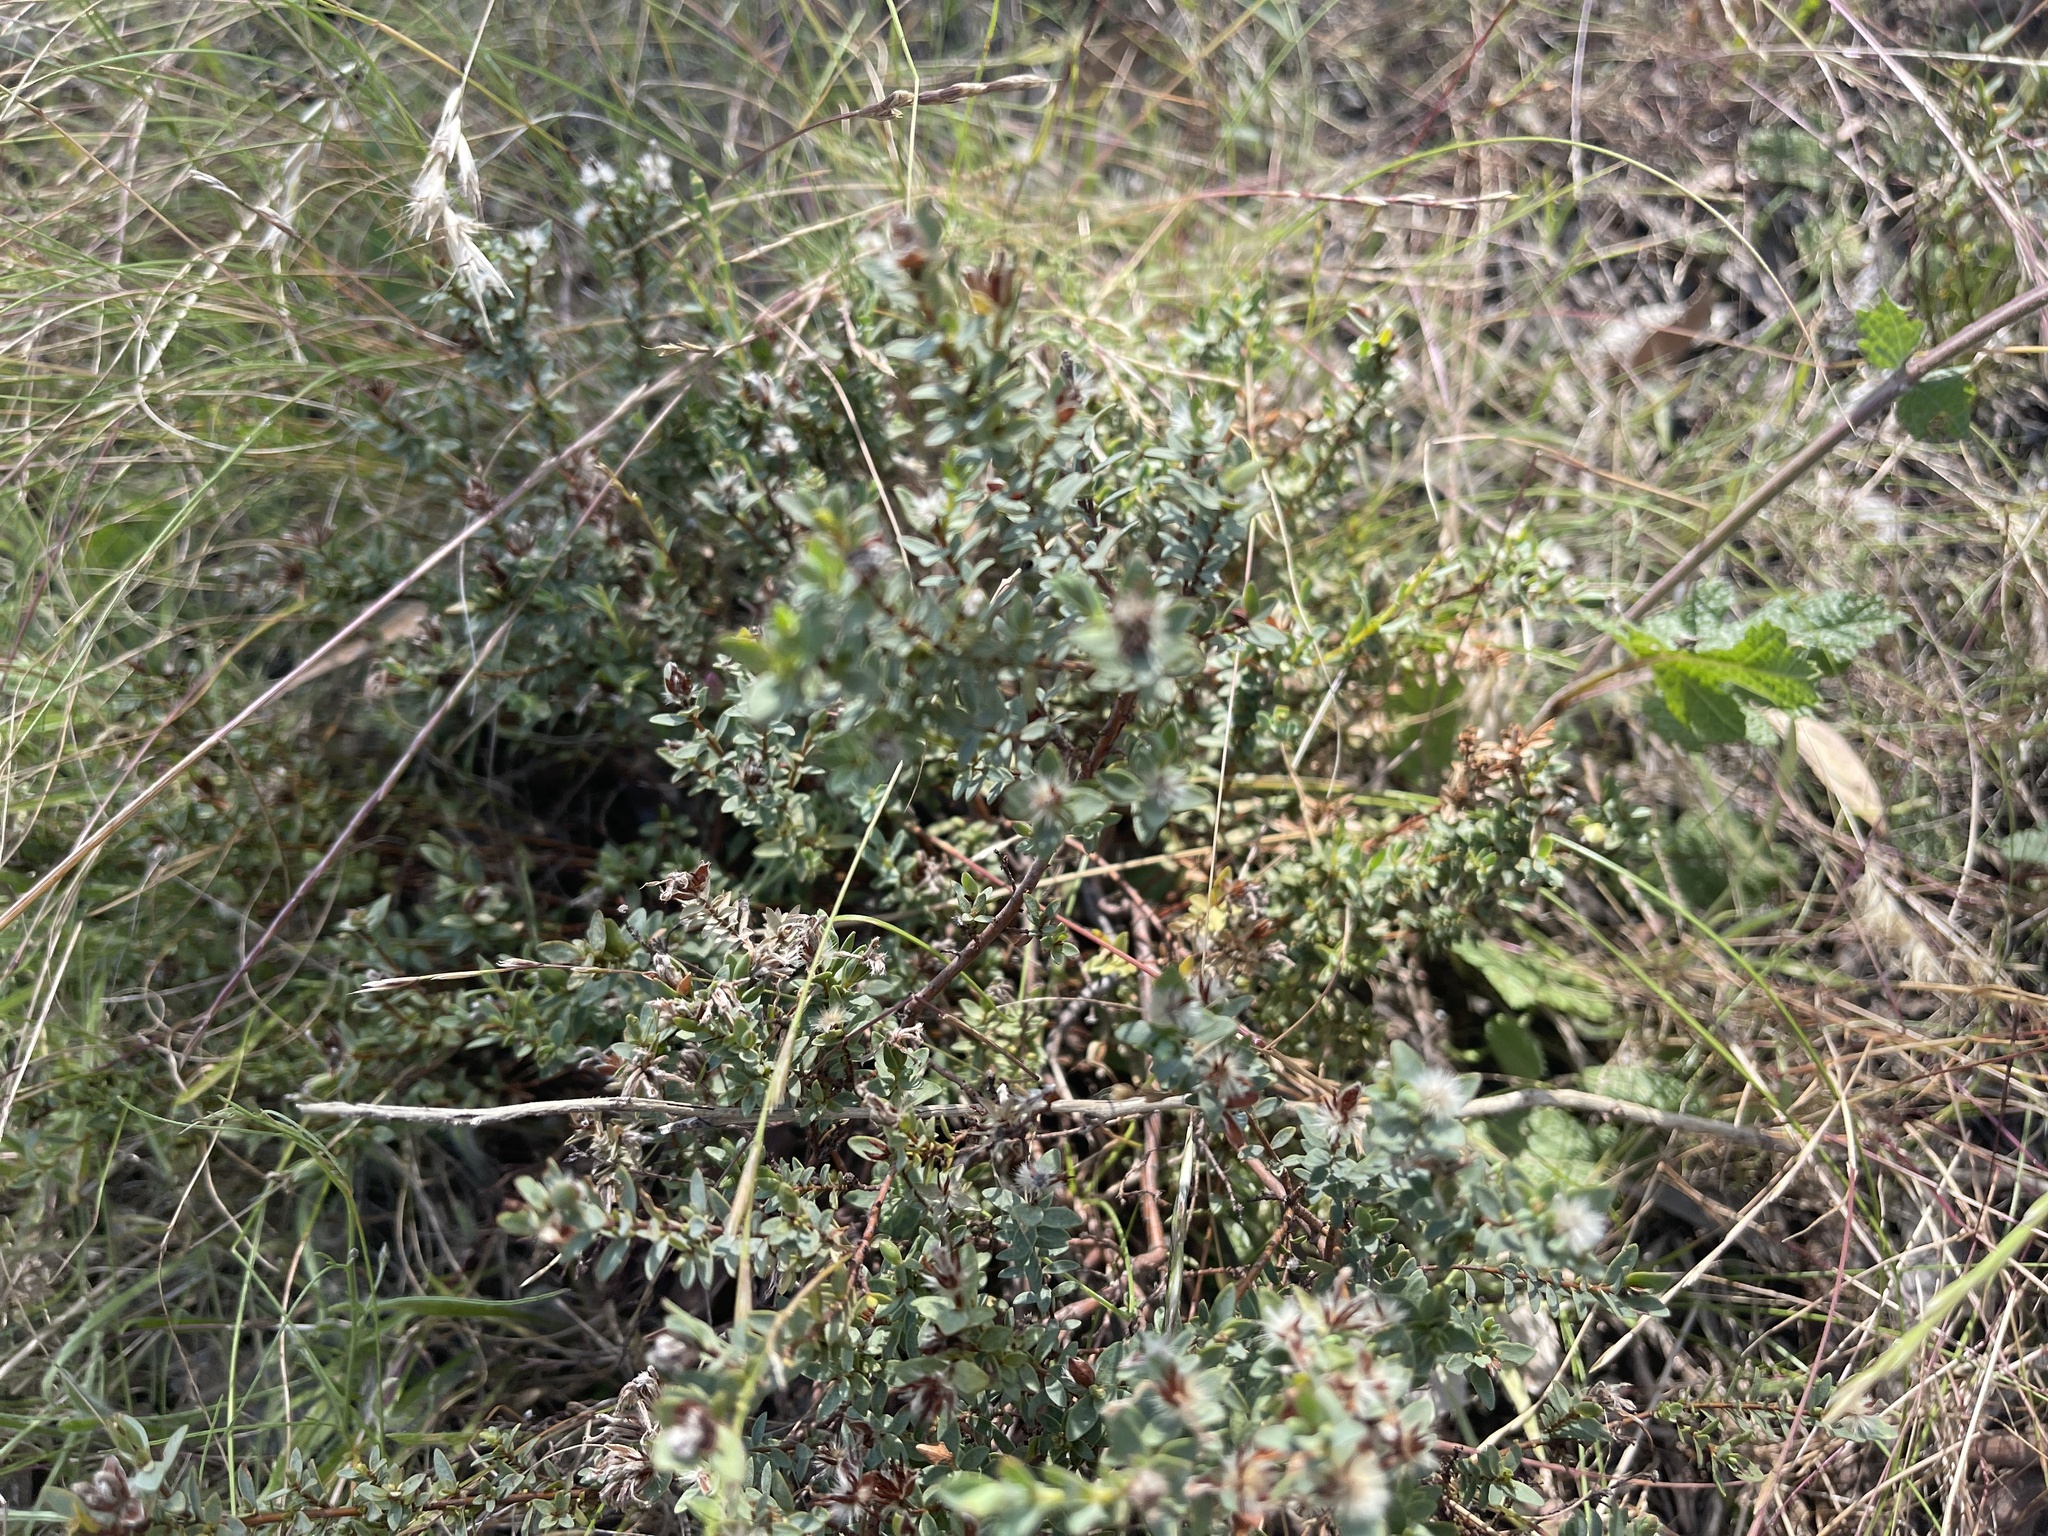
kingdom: Plantae
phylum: Tracheophyta
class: Magnoliopsida
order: Malvales
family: Thymelaeaceae
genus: Pimelea
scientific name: Pimelea glauca
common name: Smooth riceflower
